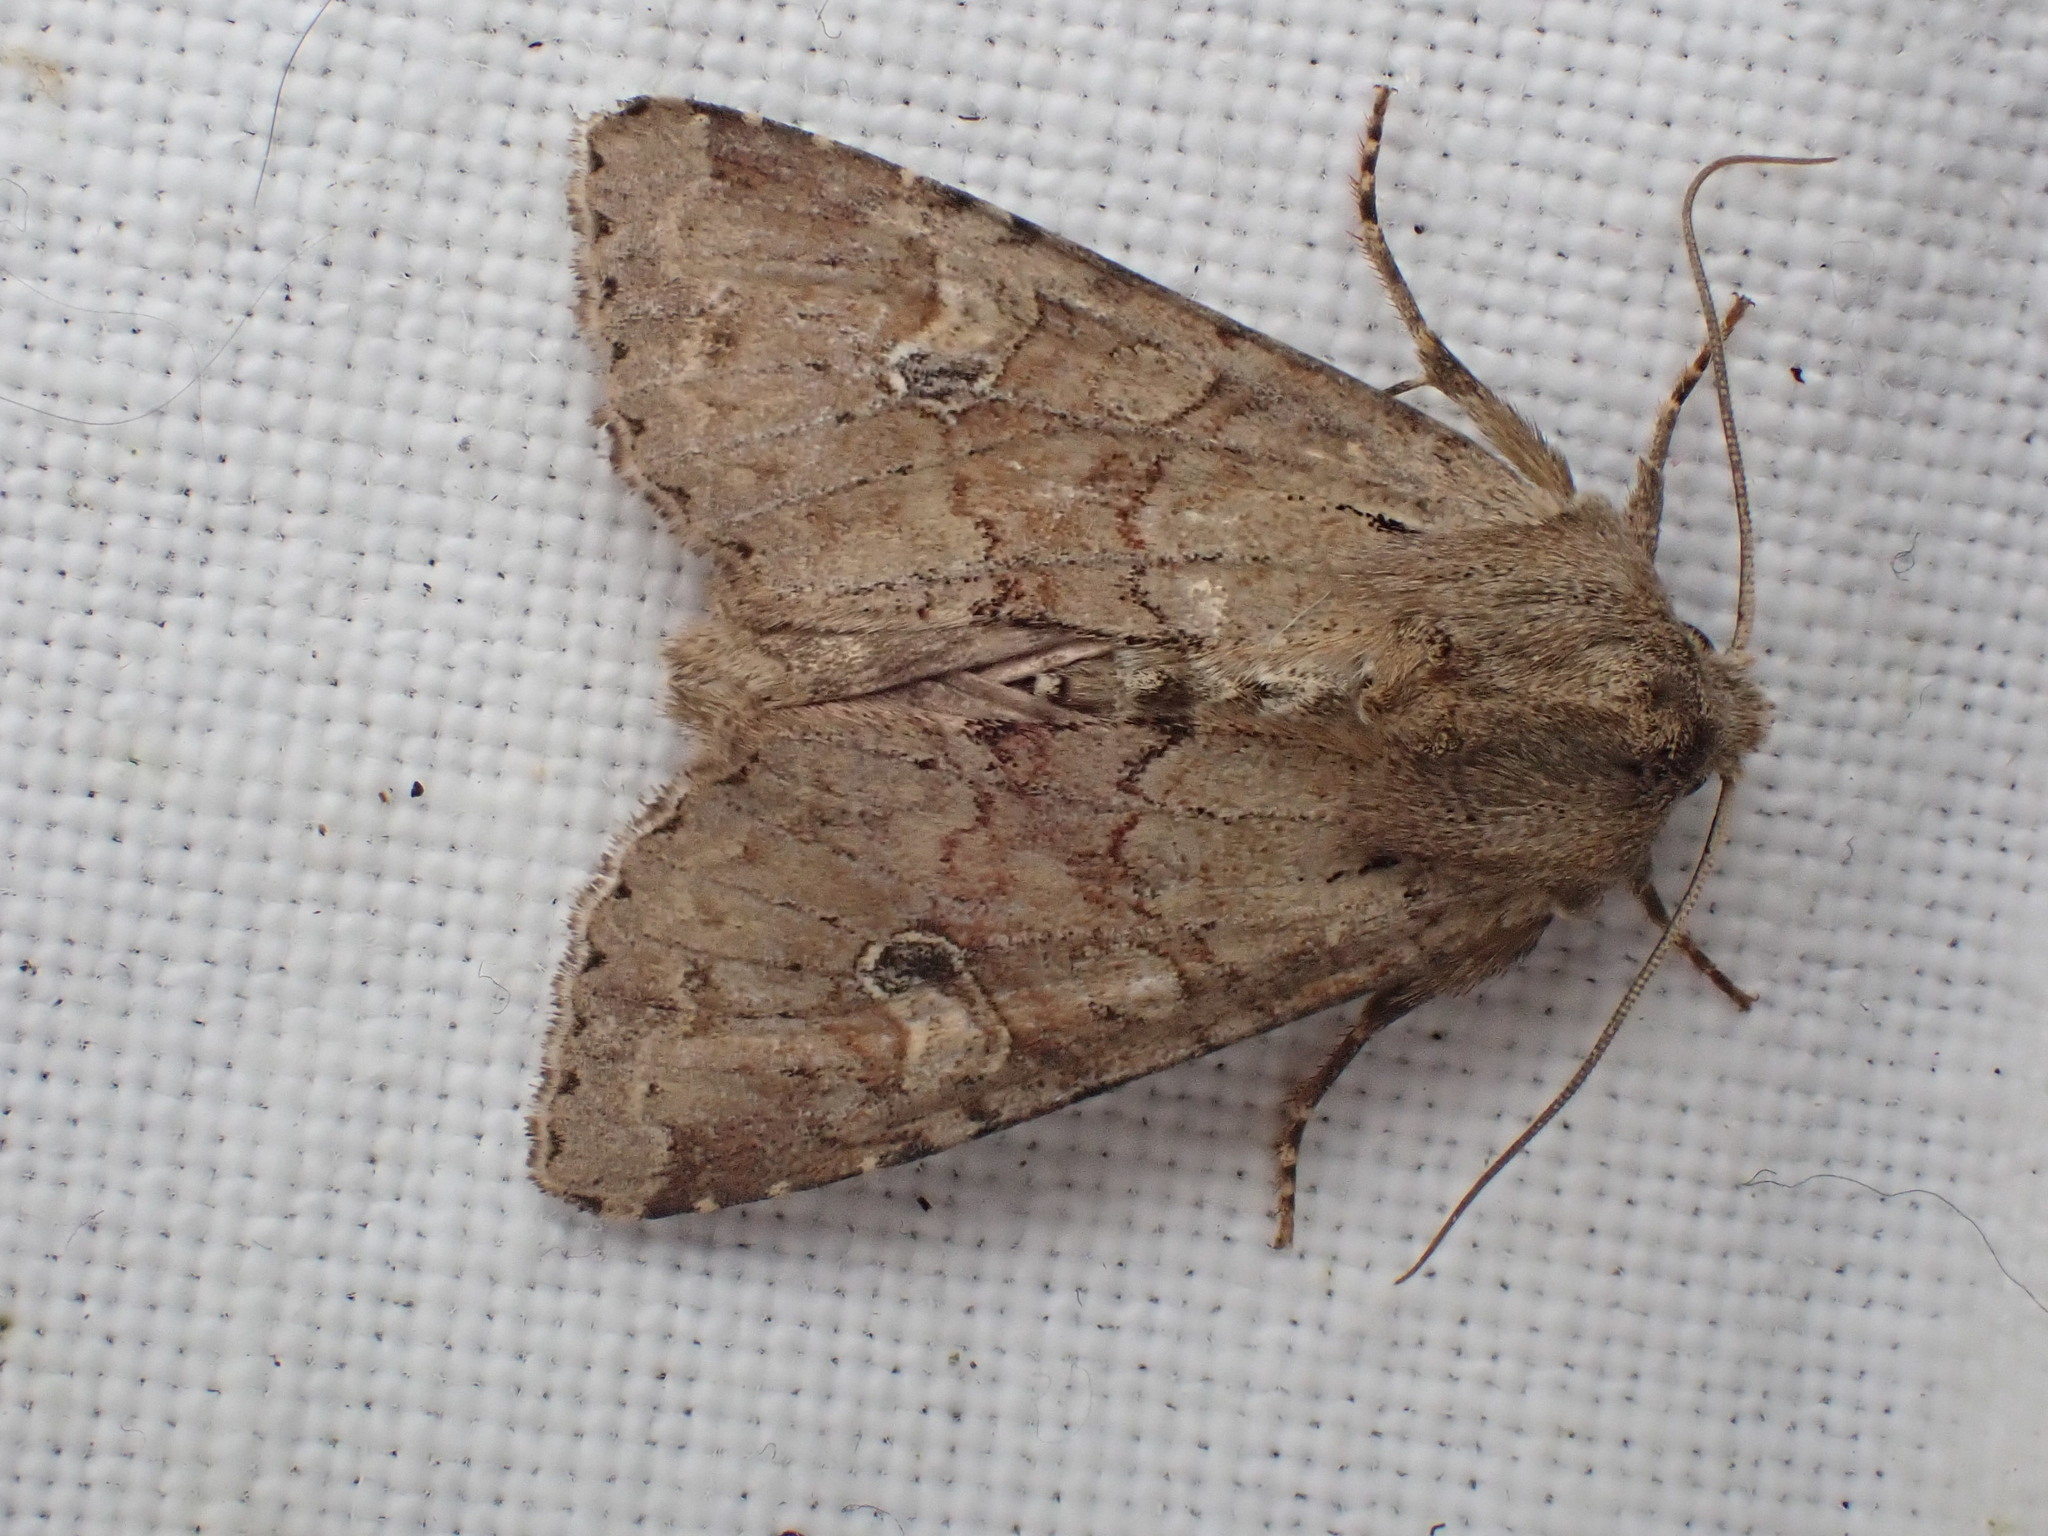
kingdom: Animalia
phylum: Arthropoda
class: Insecta
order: Lepidoptera
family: Noctuidae
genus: Apamea
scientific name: Apamea sordens
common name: Rustic shoulder-knot
